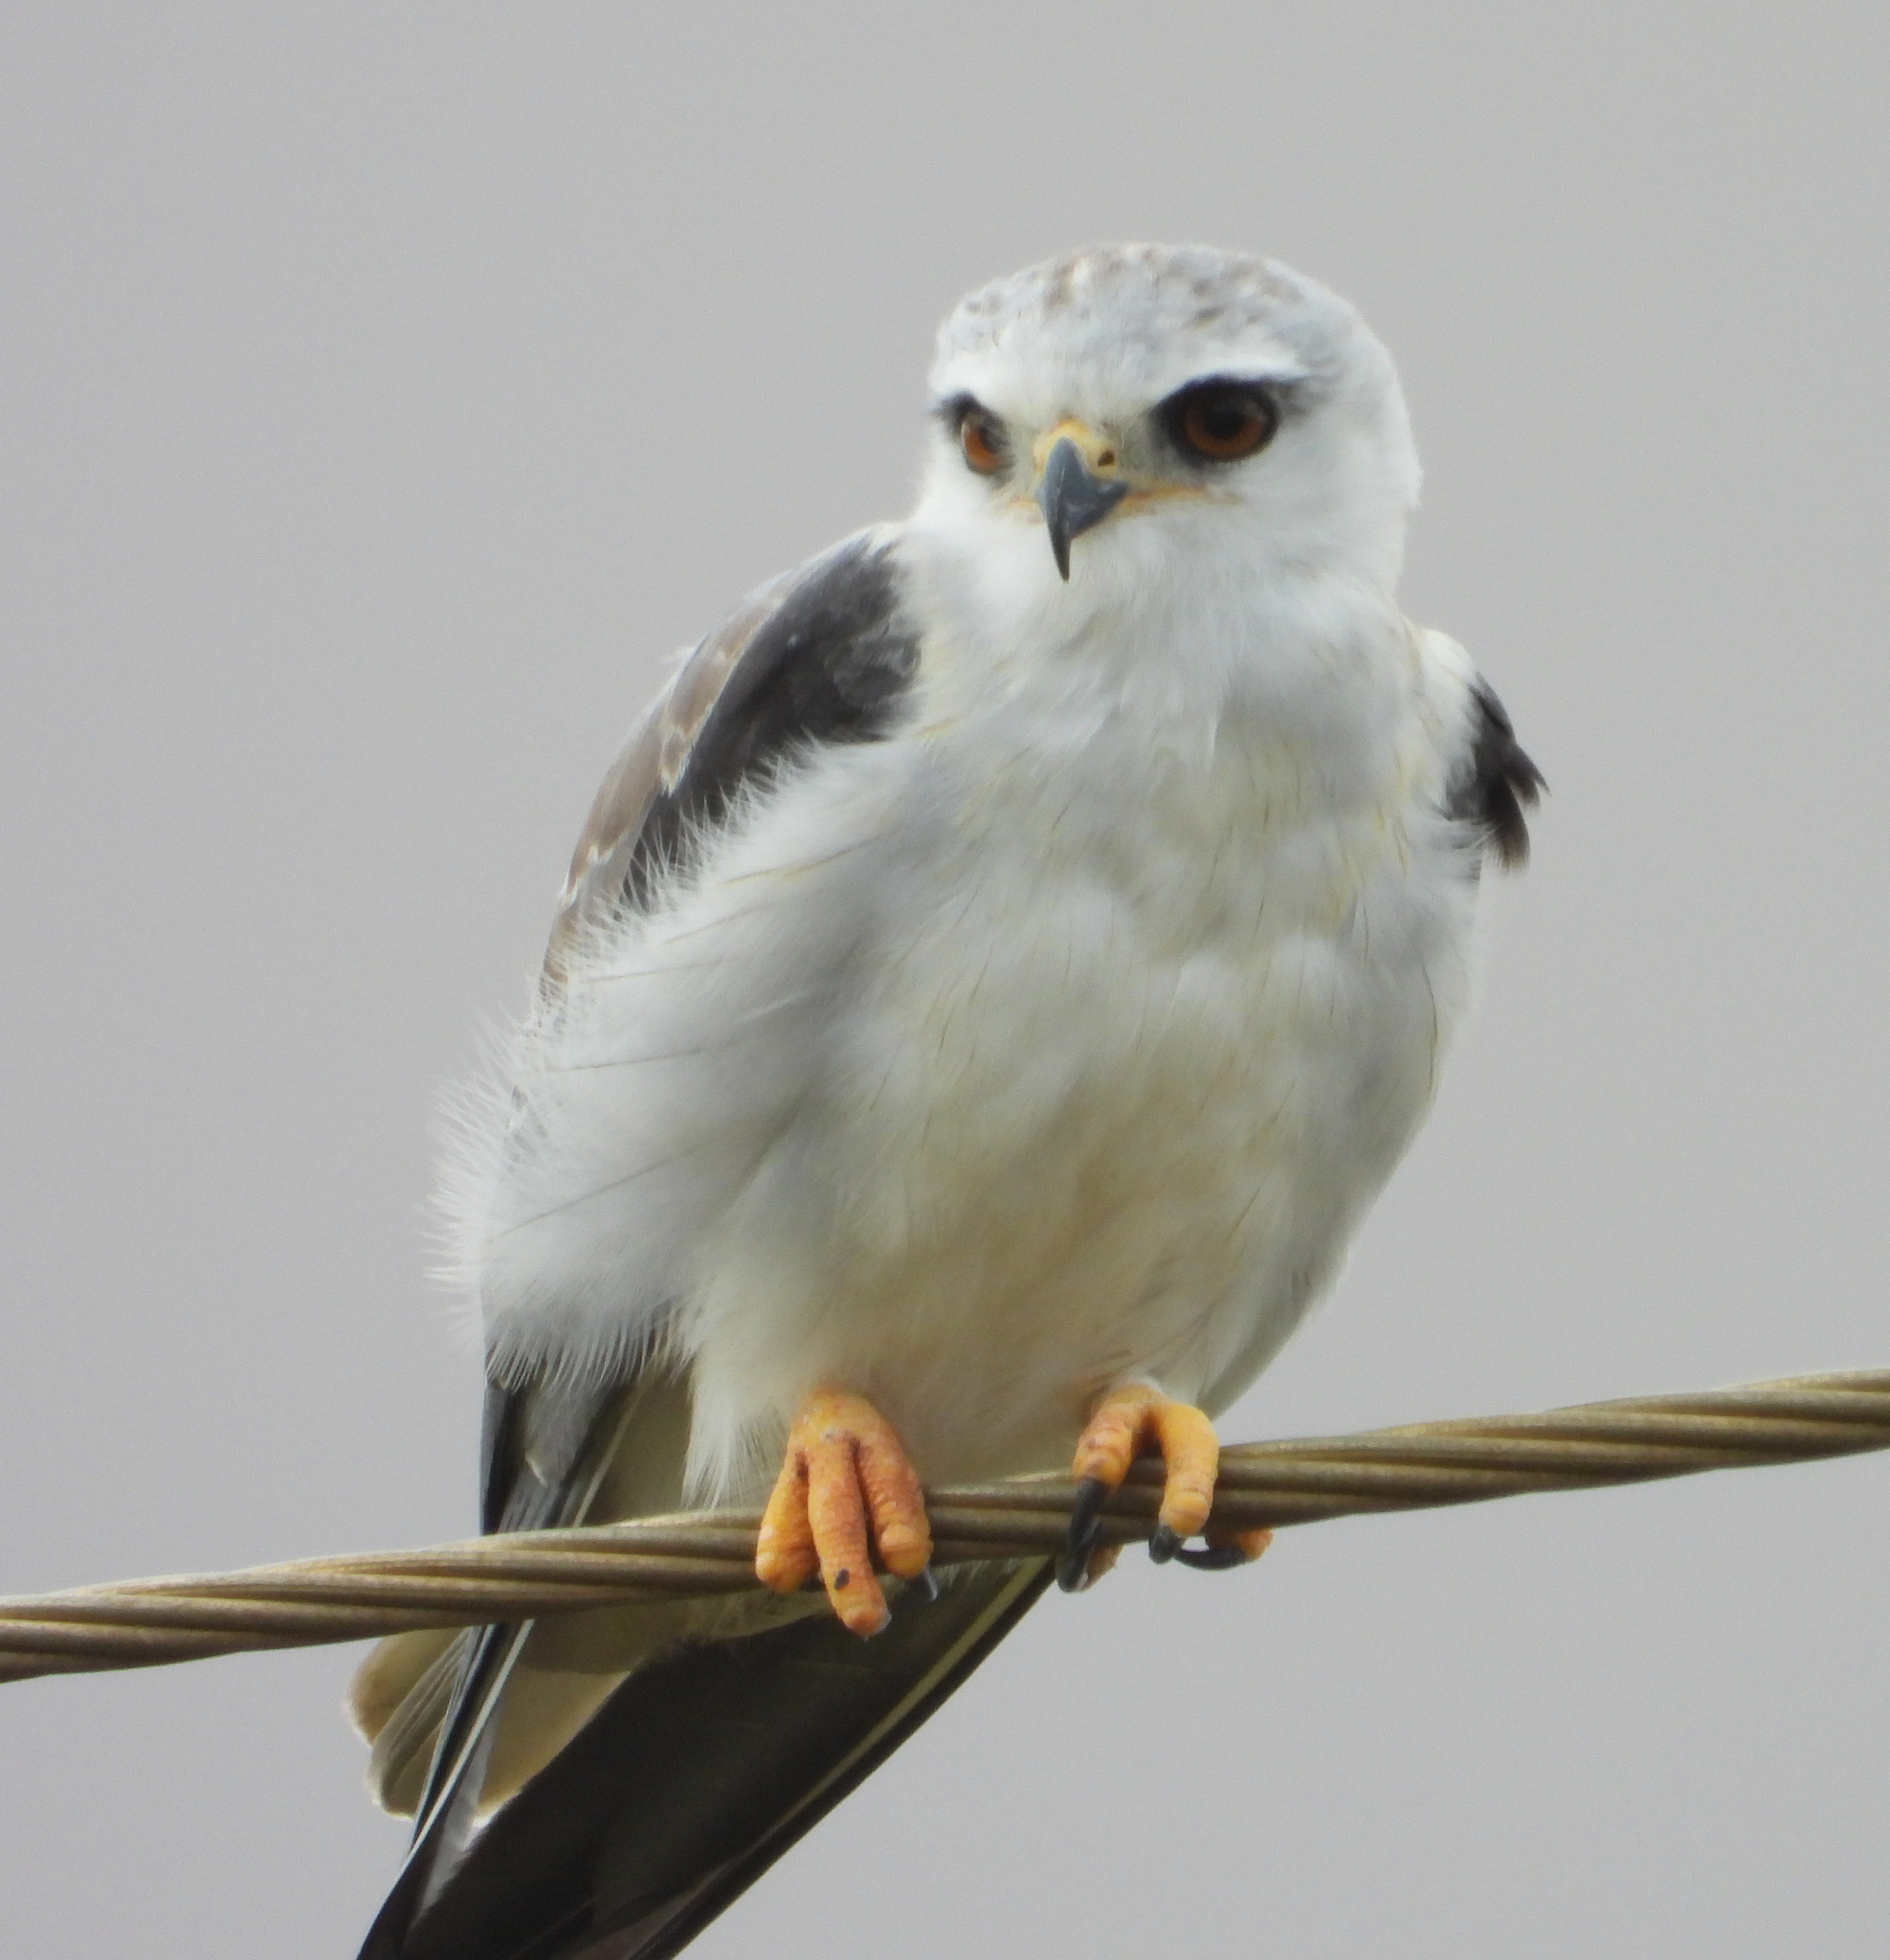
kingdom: Animalia
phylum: Chordata
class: Aves
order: Accipitriformes
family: Accipitridae
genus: Elanus
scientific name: Elanus caeruleus
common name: Black-winged kite
